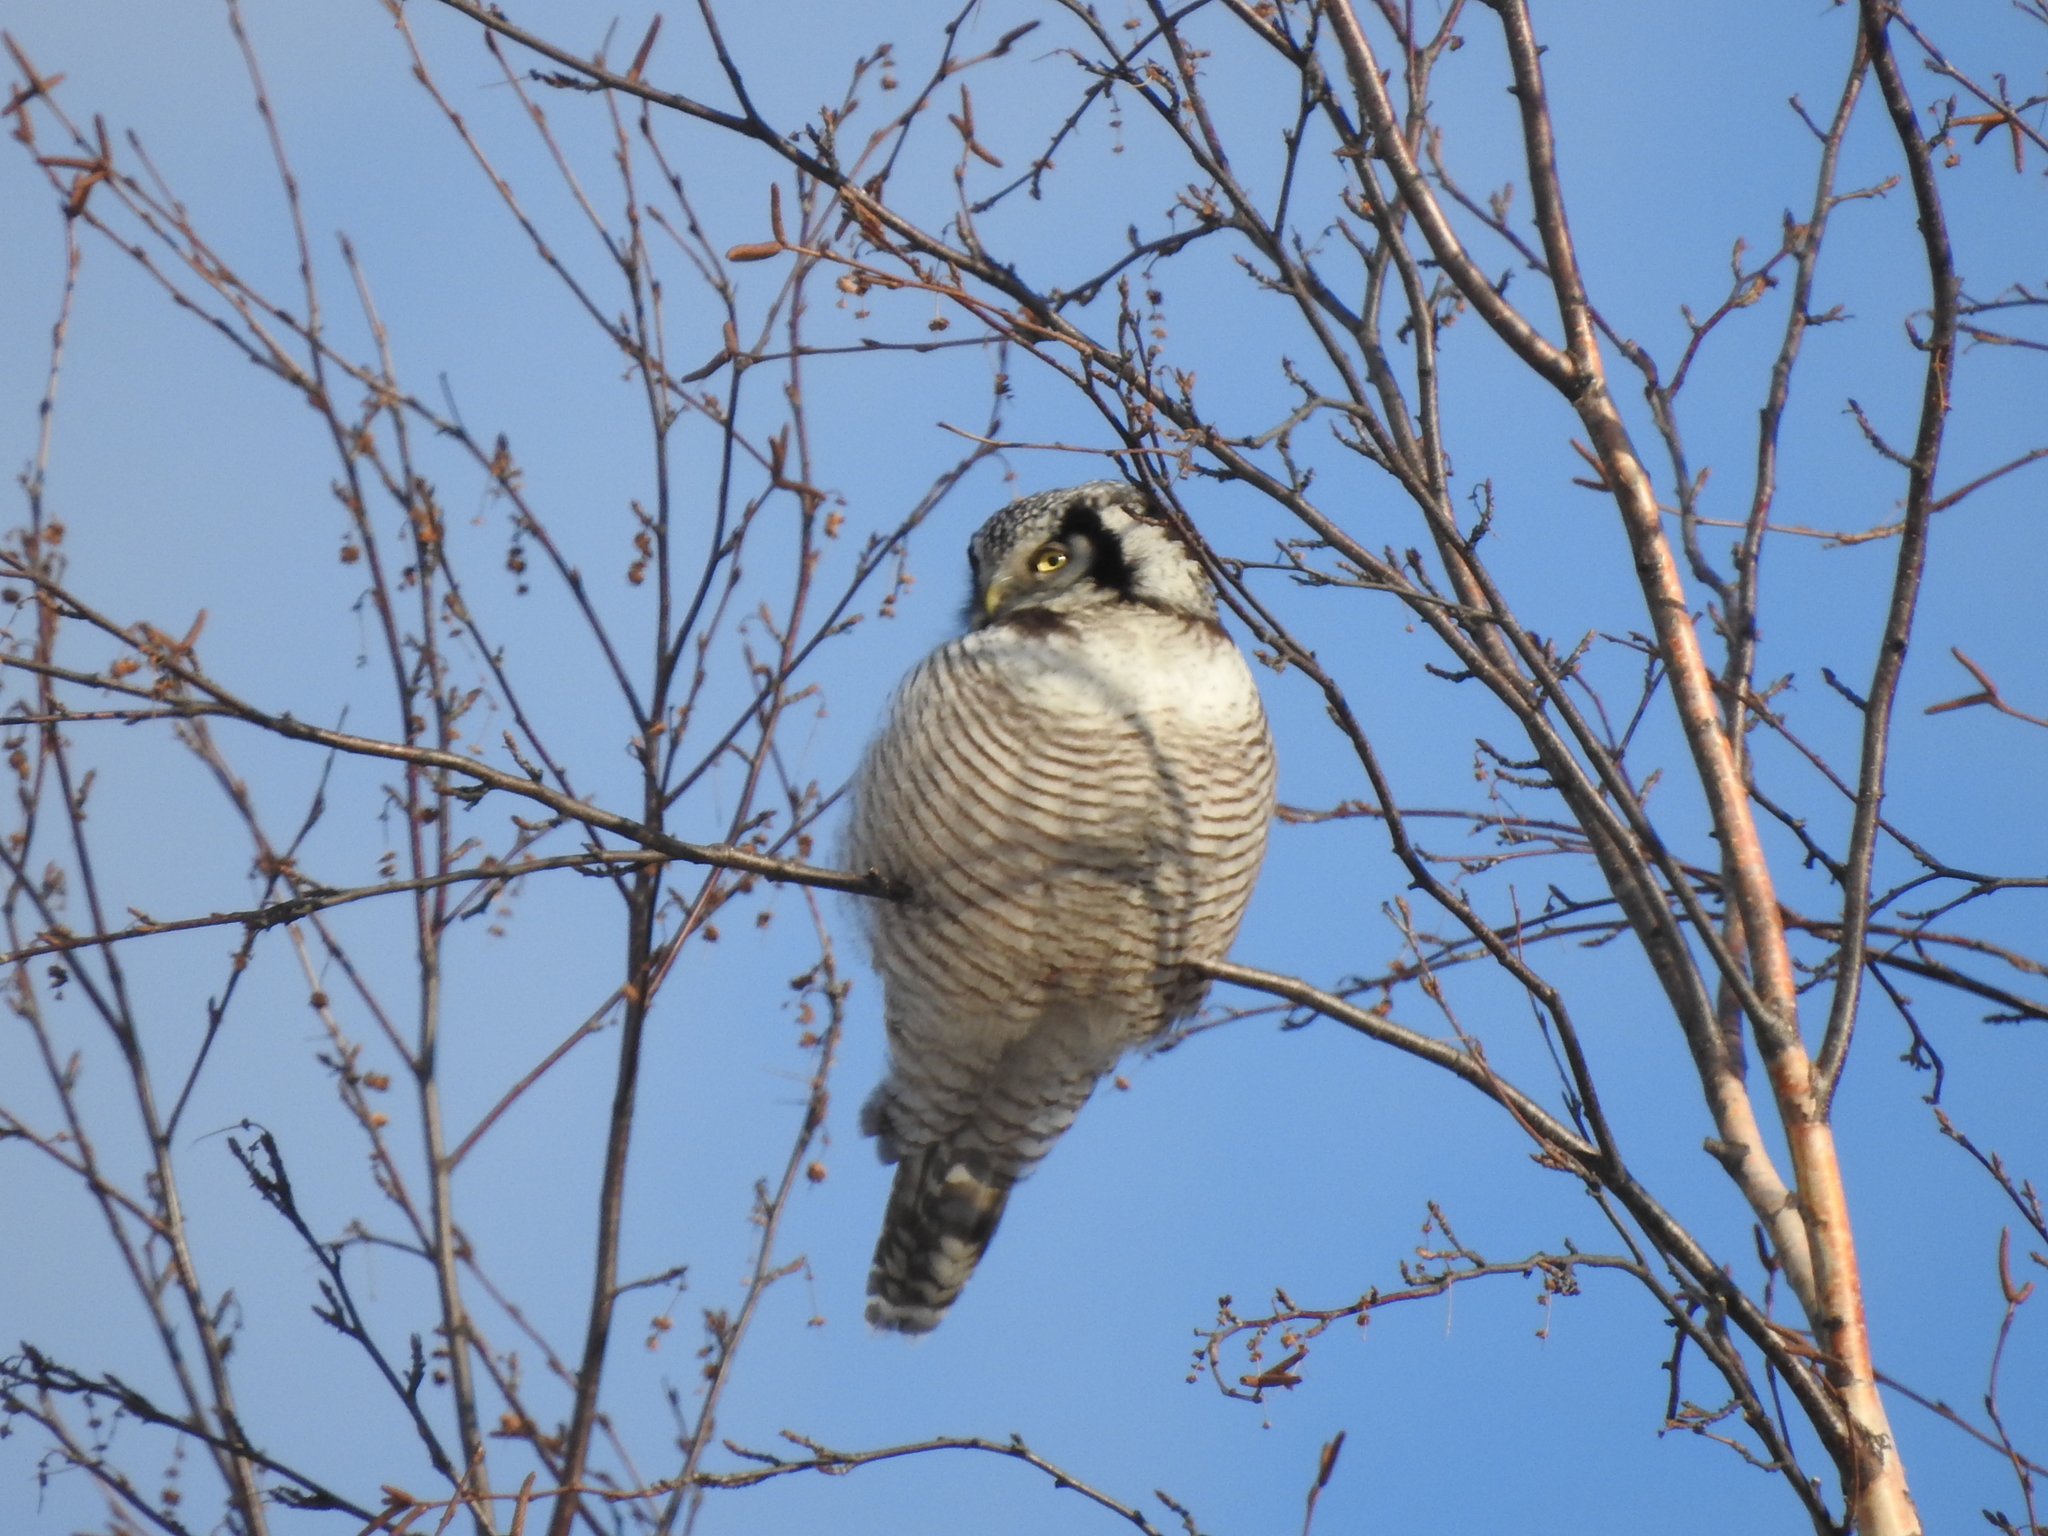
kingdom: Animalia
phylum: Chordata
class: Aves
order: Strigiformes
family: Strigidae
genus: Surnia
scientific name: Surnia ulula
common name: Northern hawk-owl
